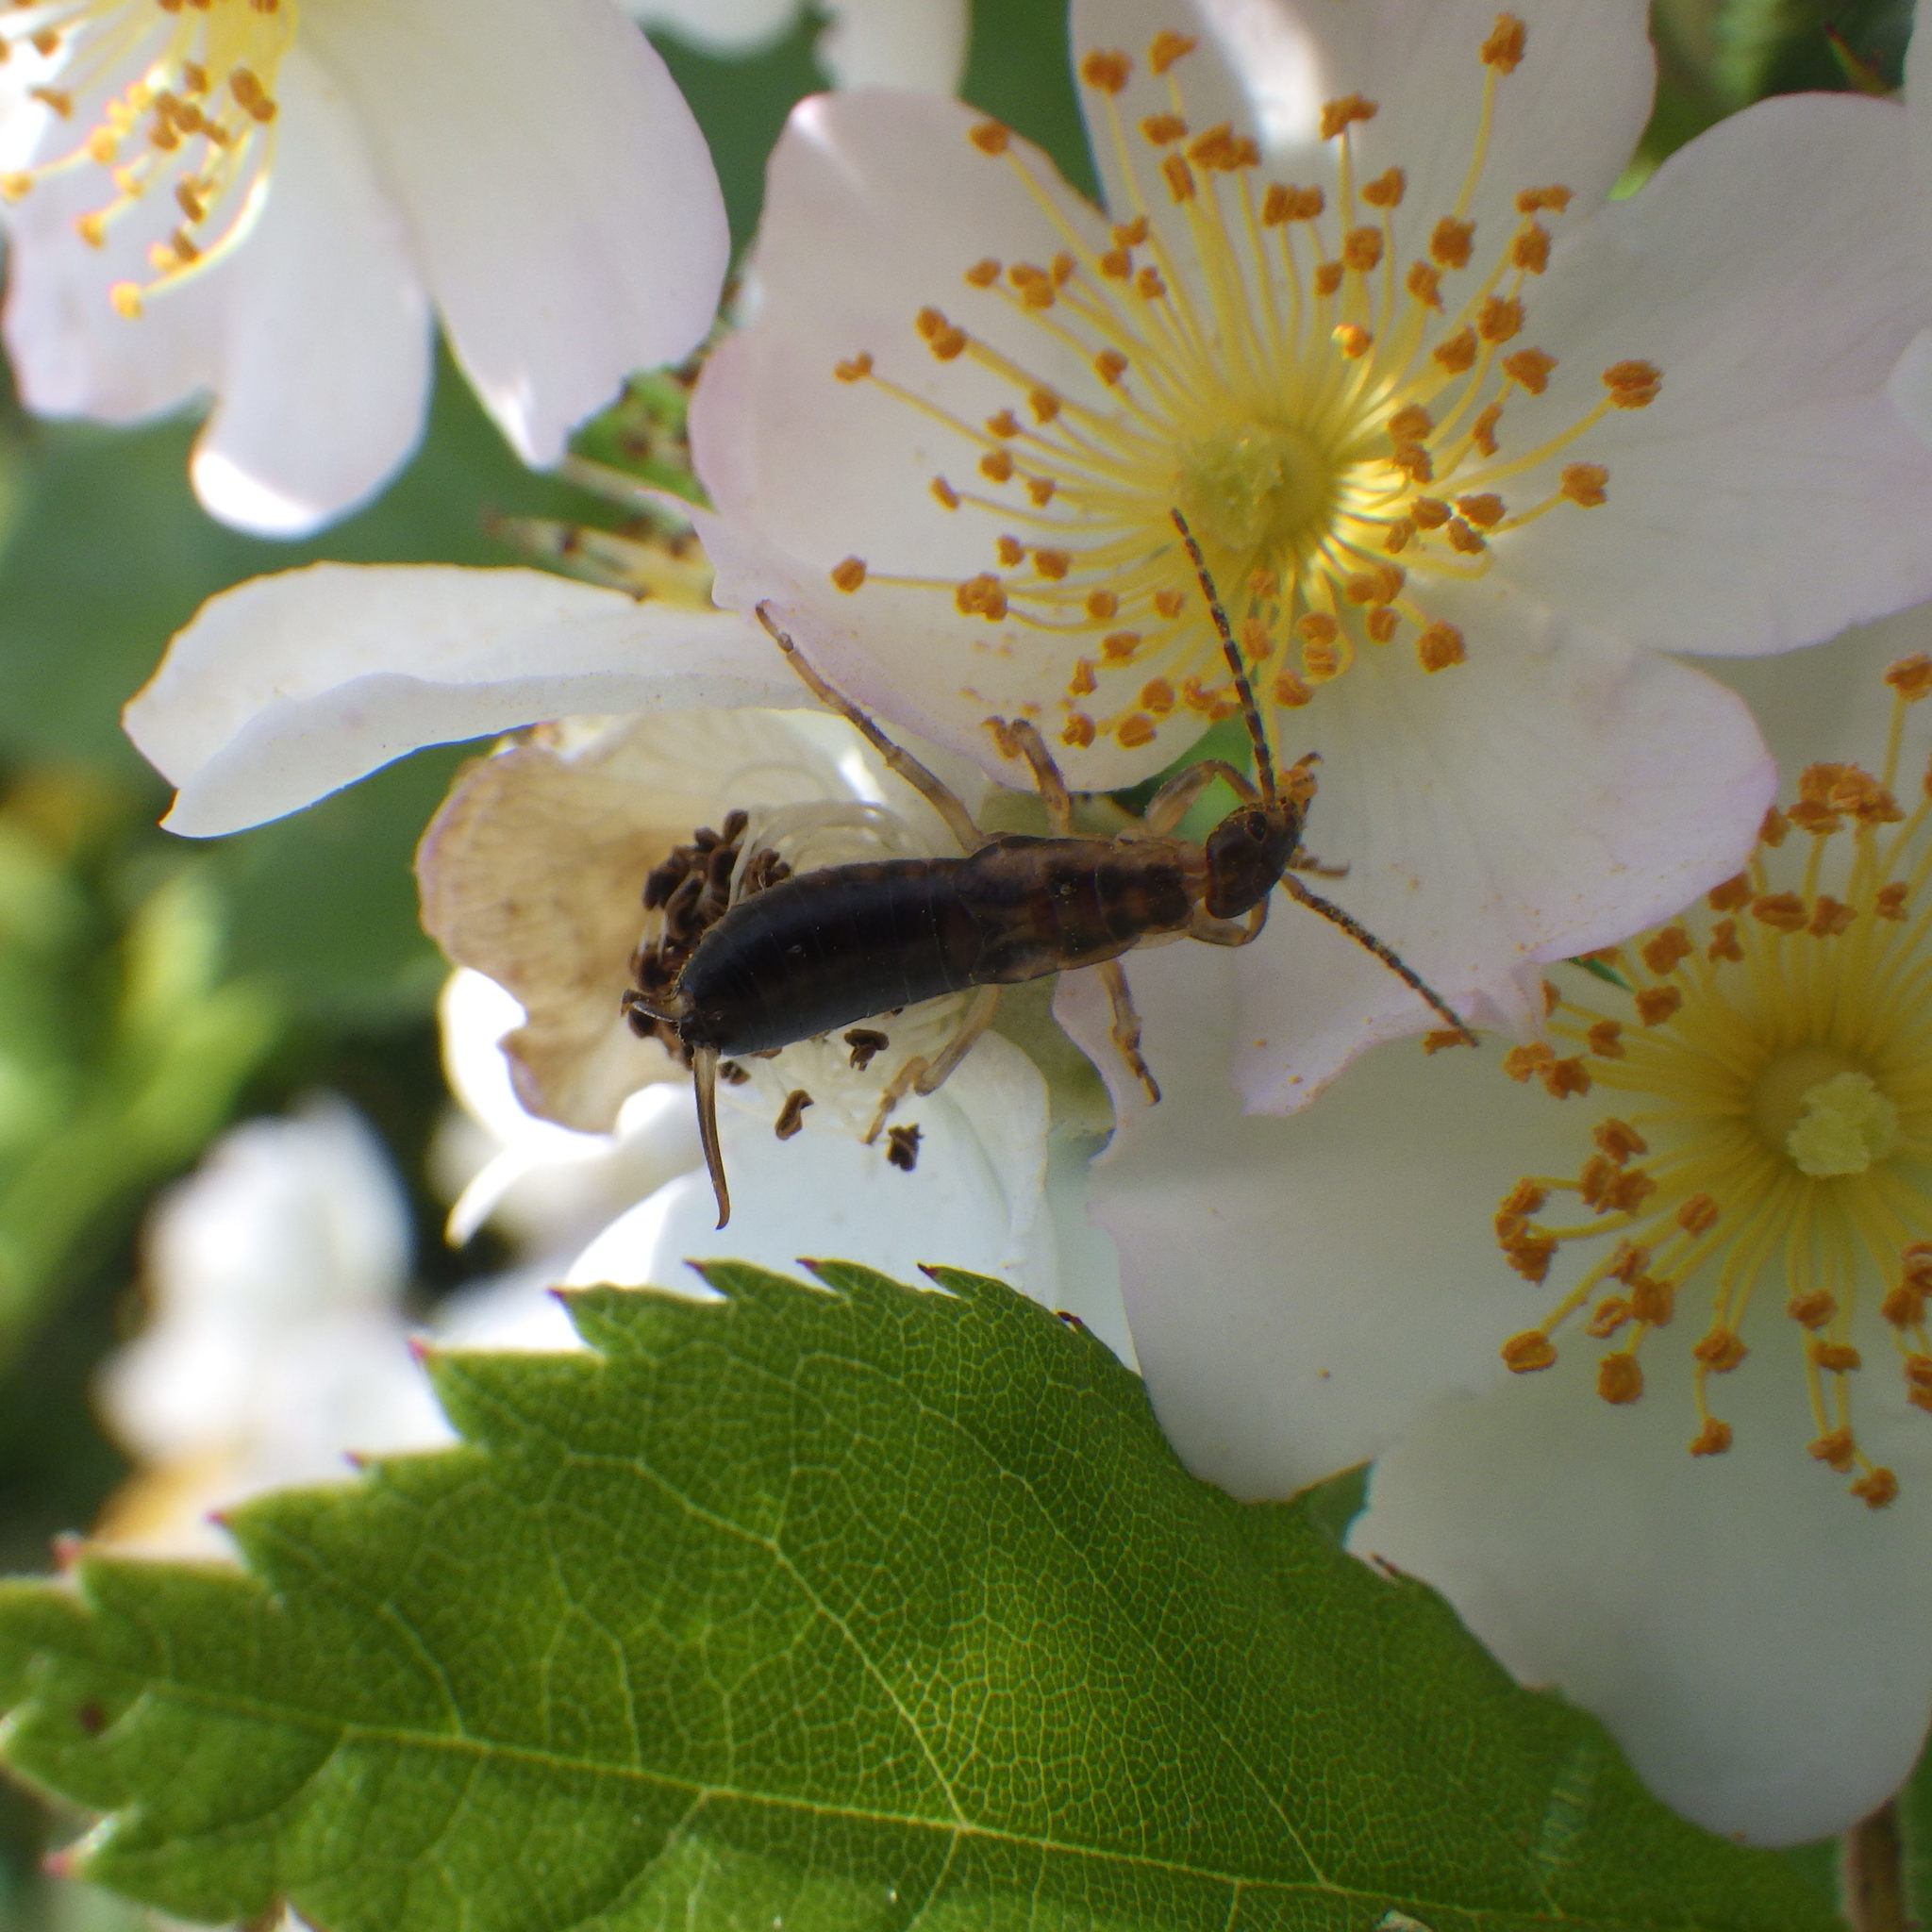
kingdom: Animalia
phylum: Arthropoda
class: Insecta
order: Dermaptera
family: Forficulidae
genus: Forficula
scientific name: Forficula
